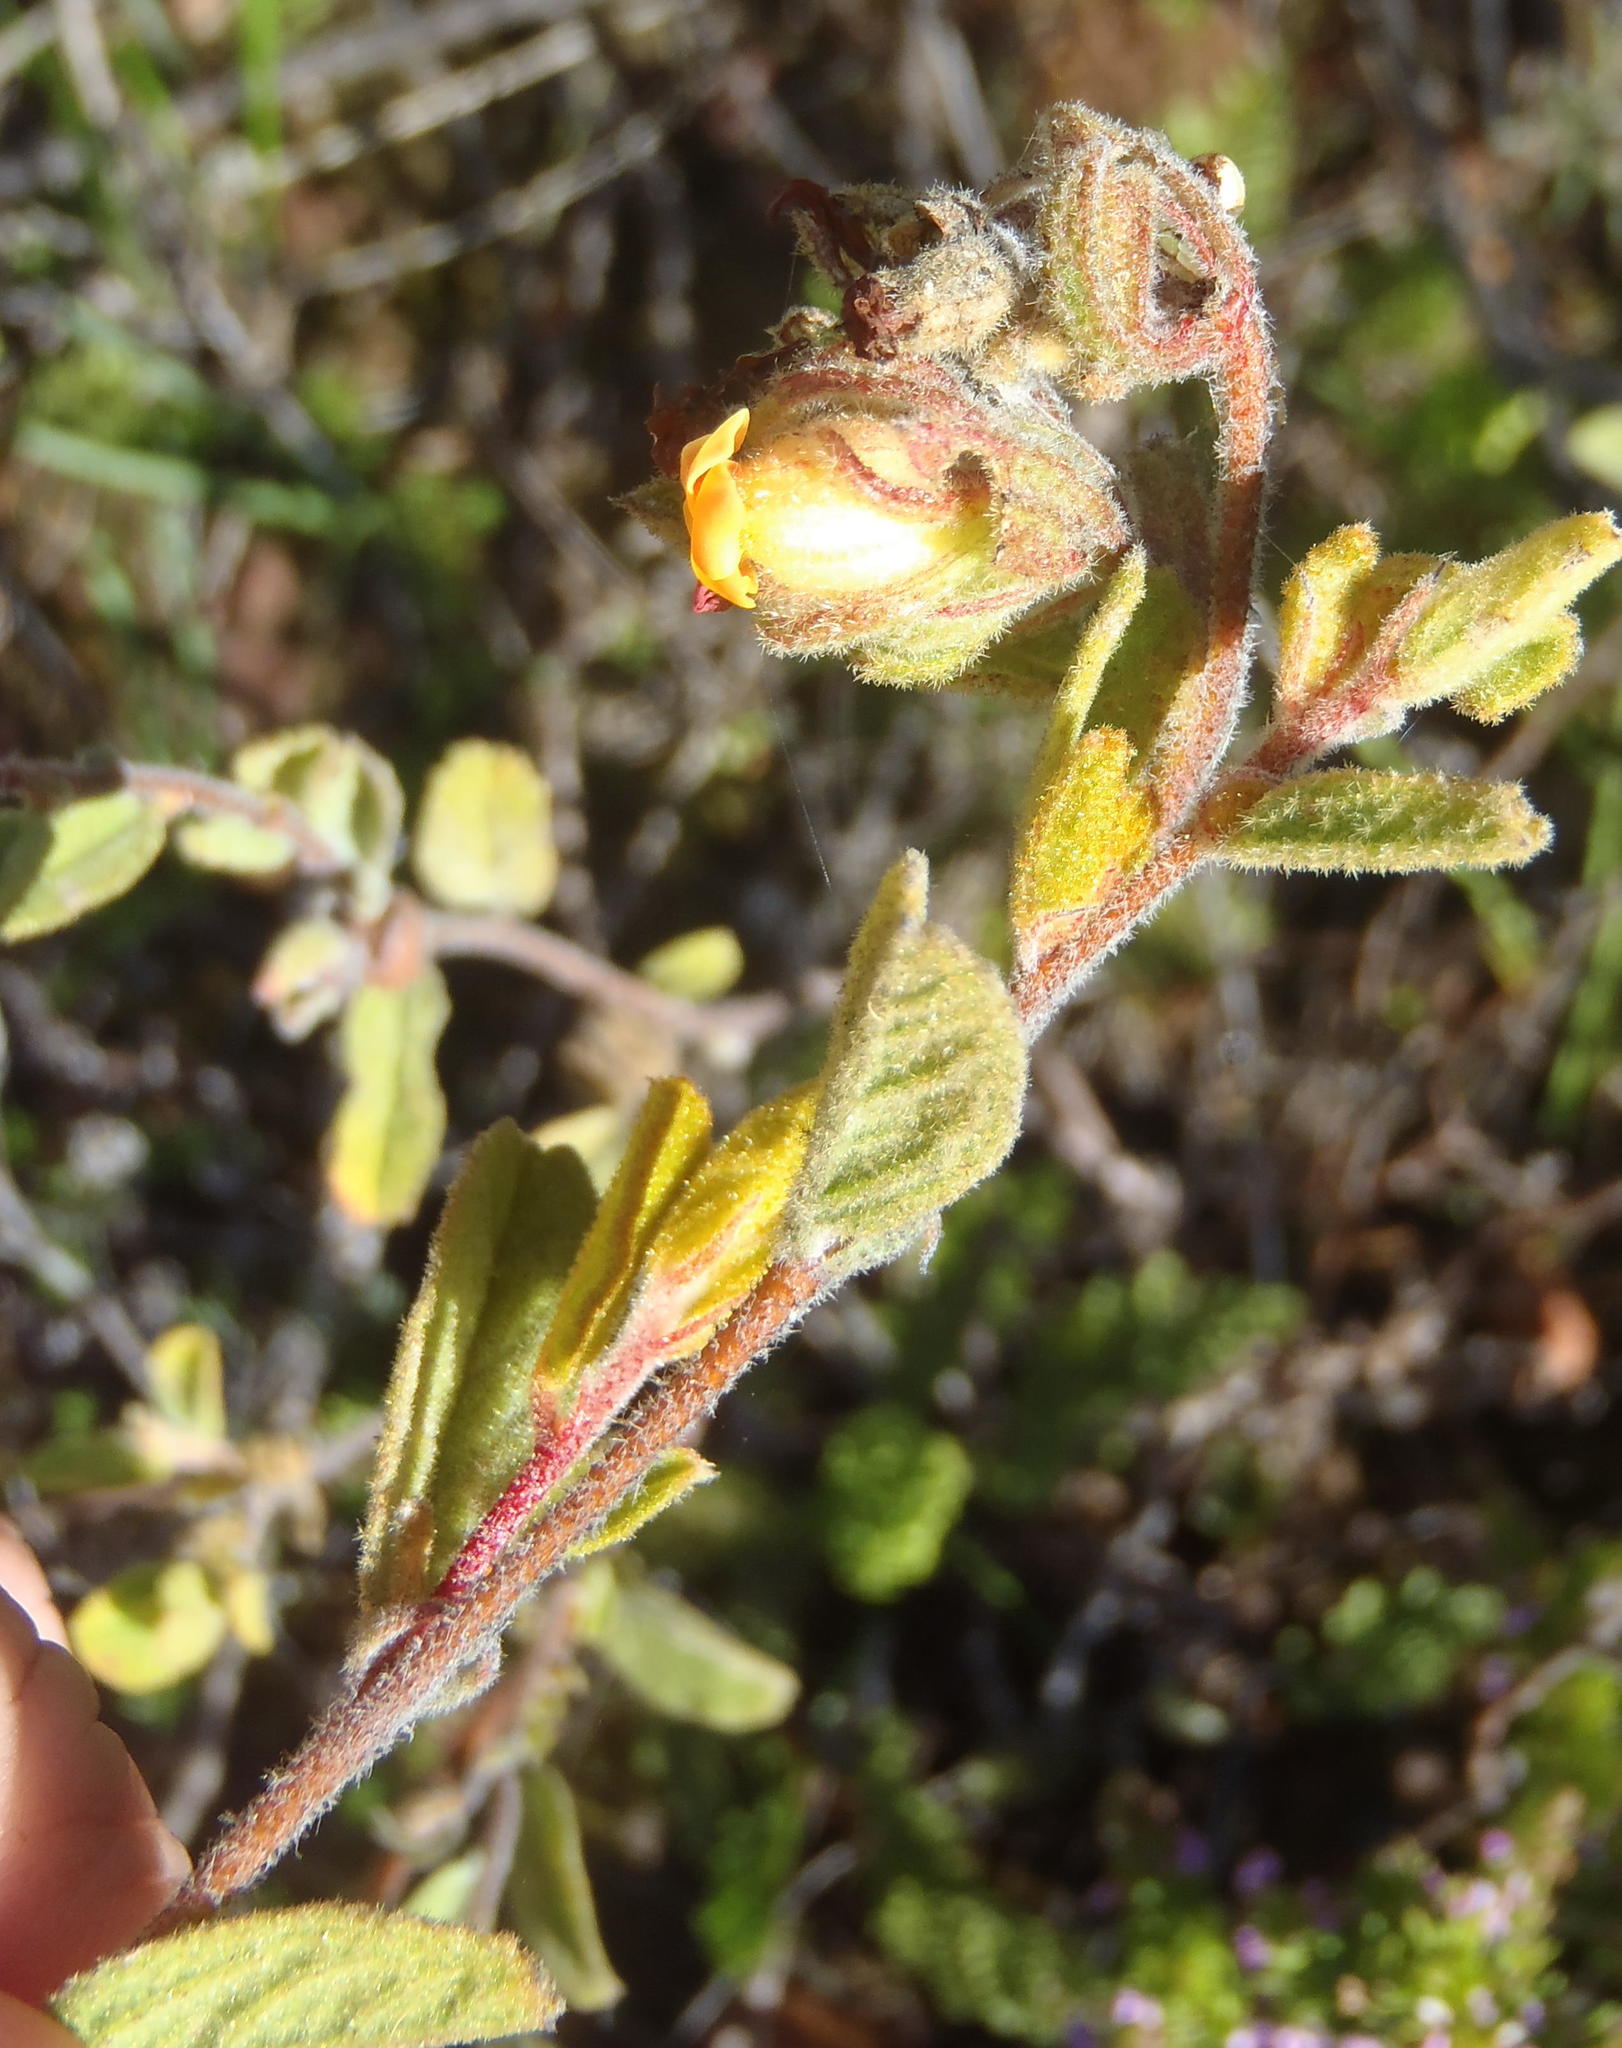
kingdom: Plantae
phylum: Tracheophyta
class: Magnoliopsida
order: Malvales
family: Malvaceae
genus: Hermannia
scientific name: Hermannia salviifolia
